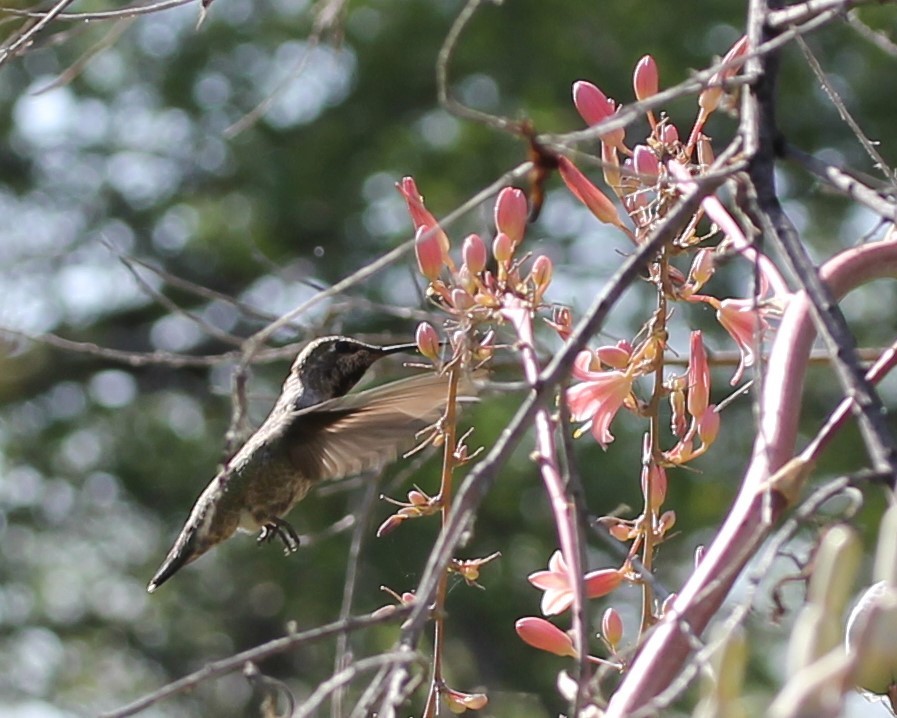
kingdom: Animalia
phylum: Chordata
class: Aves
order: Apodiformes
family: Trochilidae
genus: Calypte
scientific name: Calypte anna
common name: Anna's hummingbird
